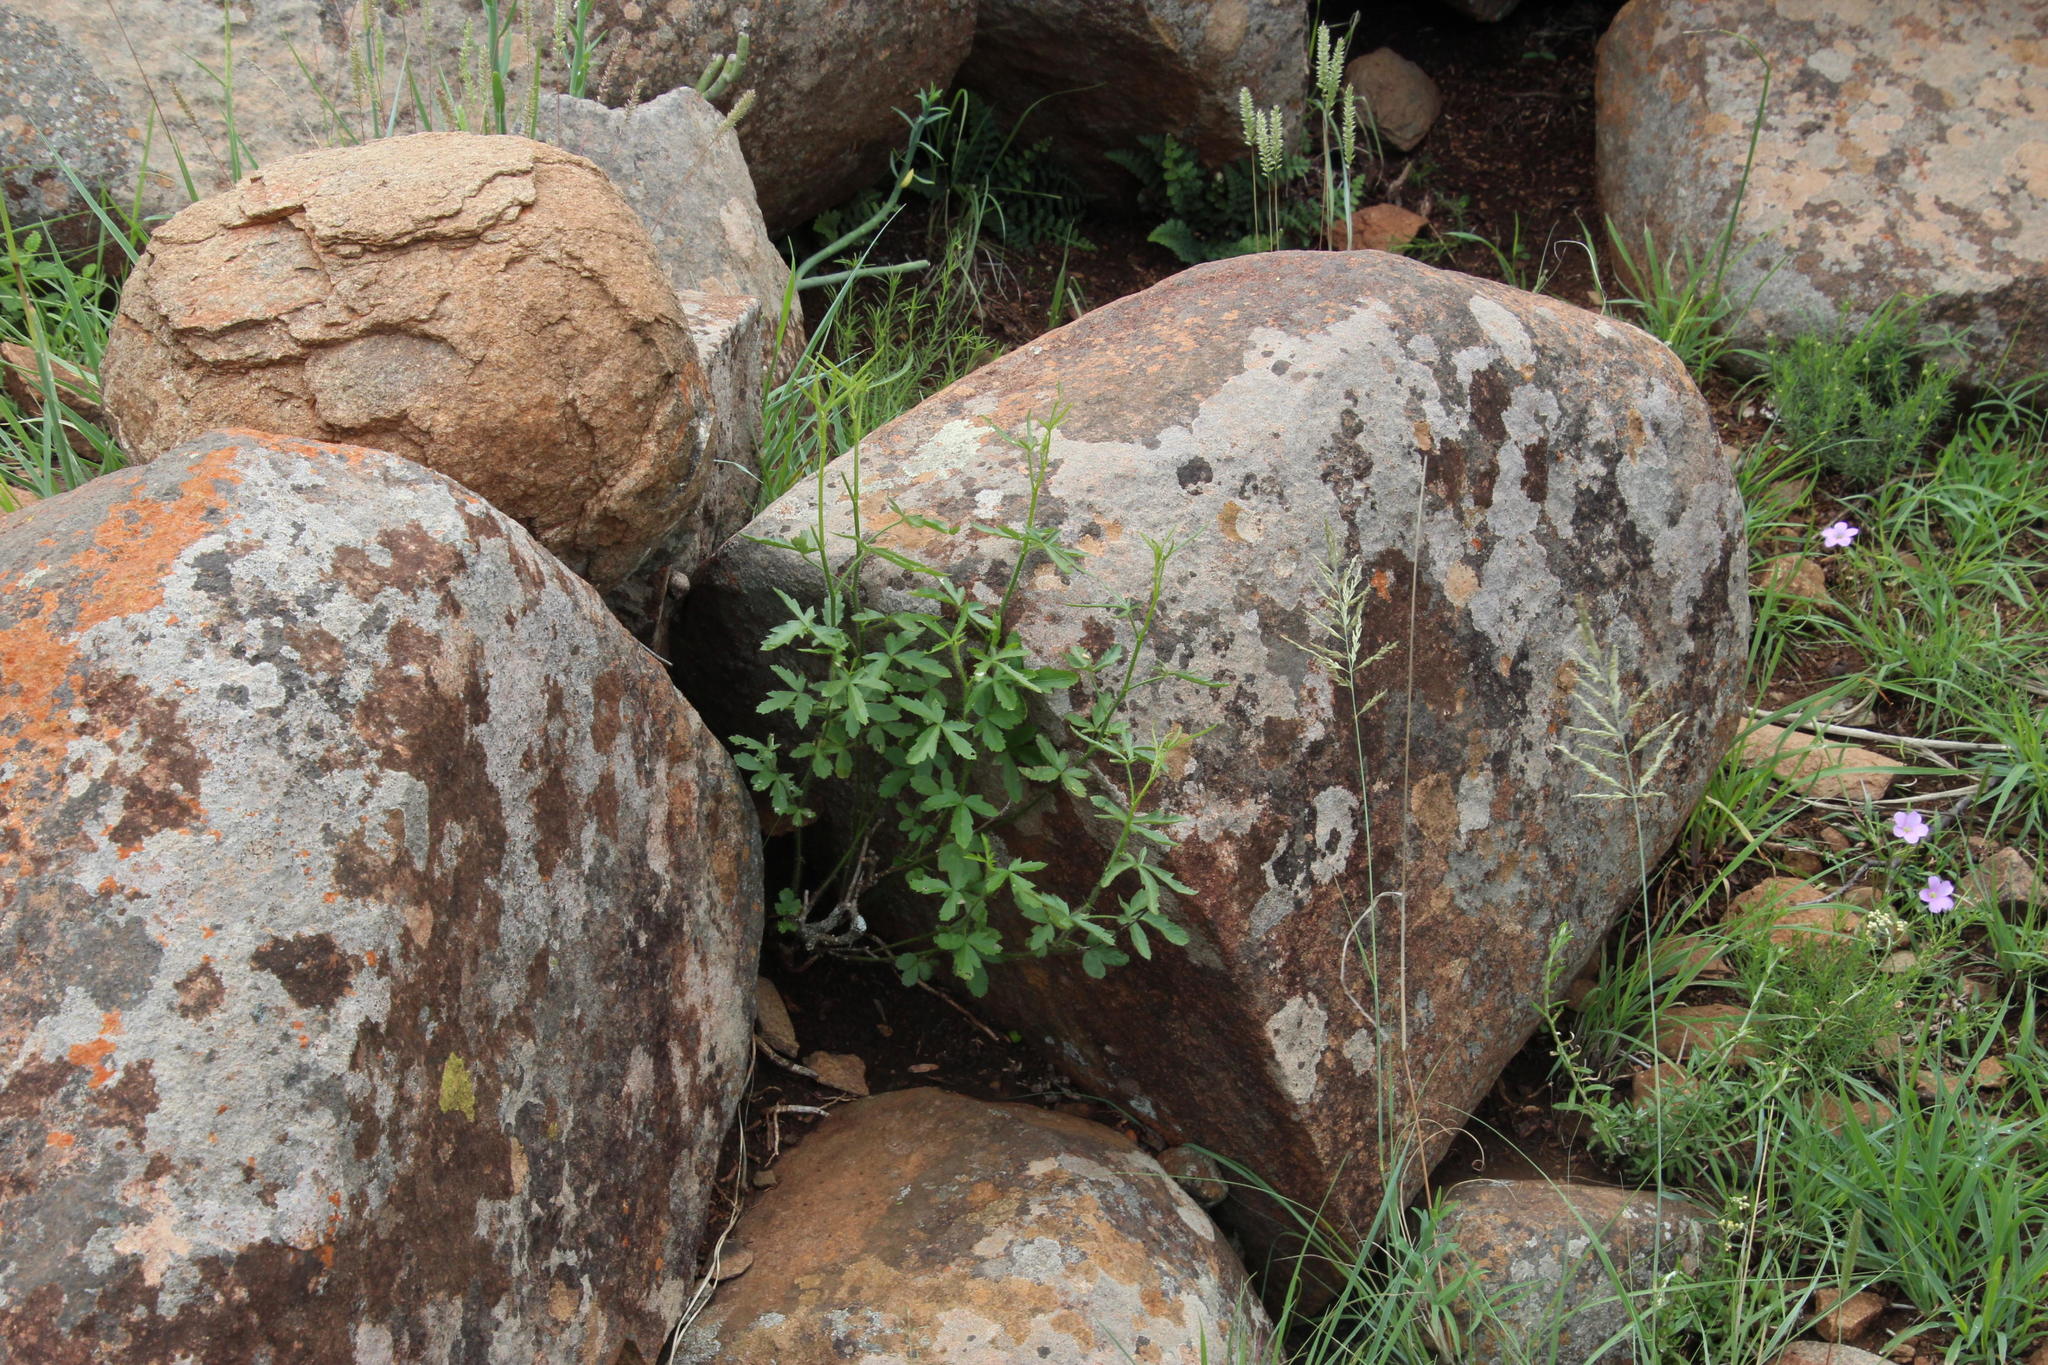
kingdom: Plantae
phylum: Tracheophyta
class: Magnoliopsida
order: Malvales
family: Malvaceae
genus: Hibiscus
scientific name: Hibiscus trionum
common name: Bladder ketmia
